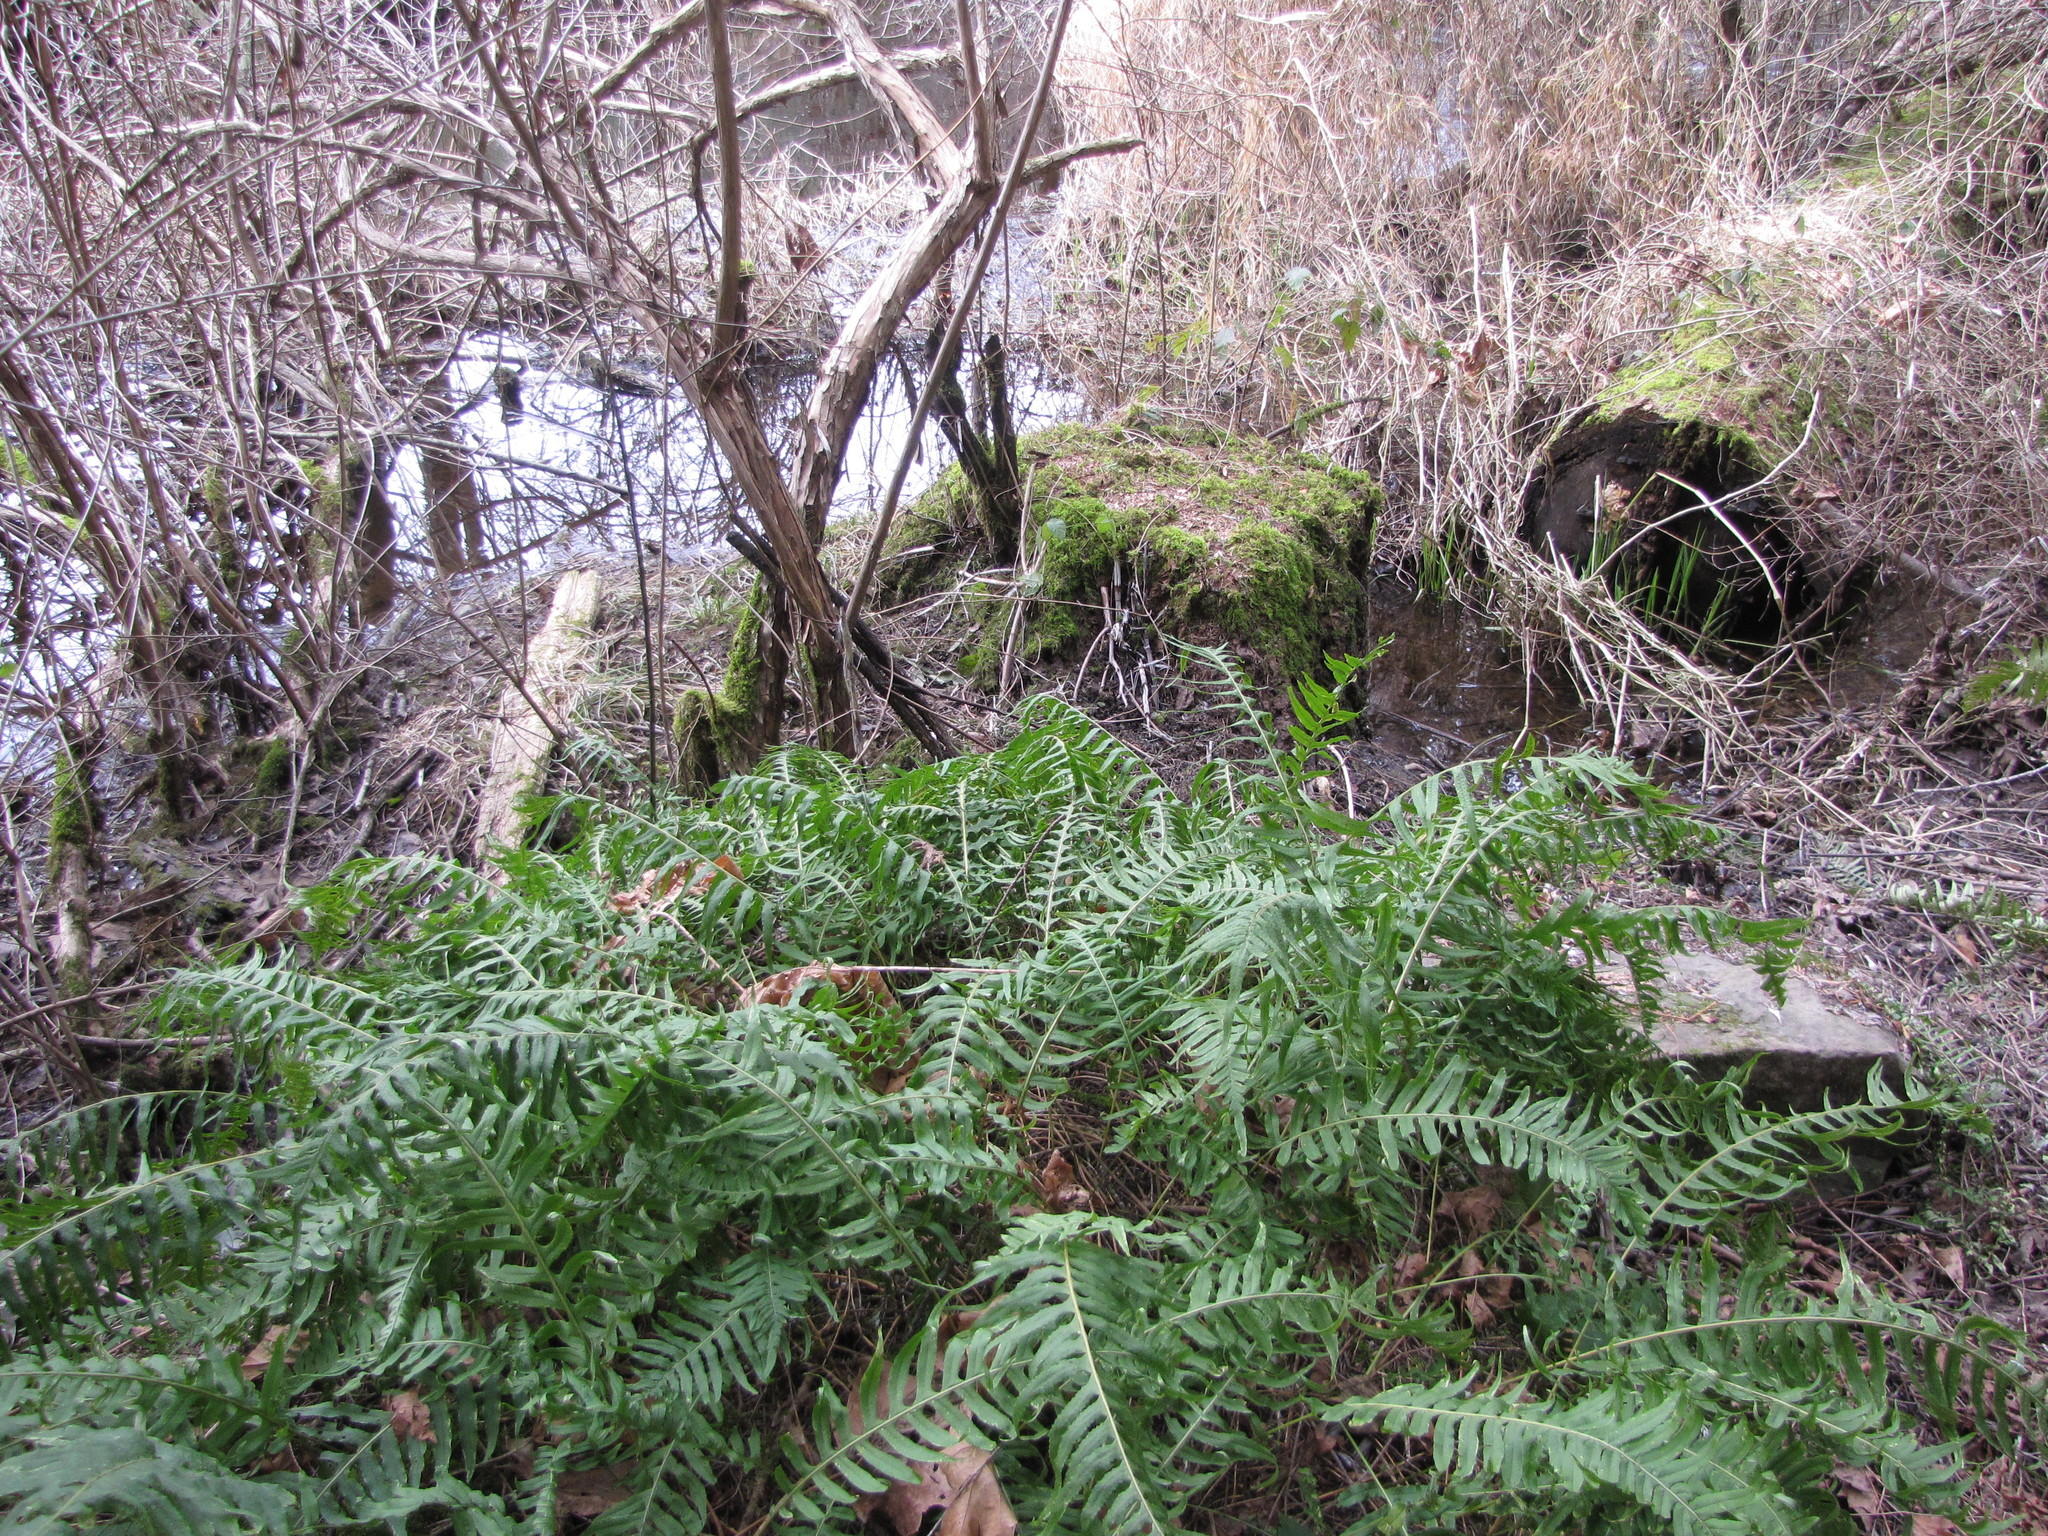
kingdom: Plantae
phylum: Tracheophyta
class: Polypodiopsida
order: Polypodiales
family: Polypodiaceae
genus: Polypodium
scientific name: Polypodium glycyrrhiza
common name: Licorice fern
